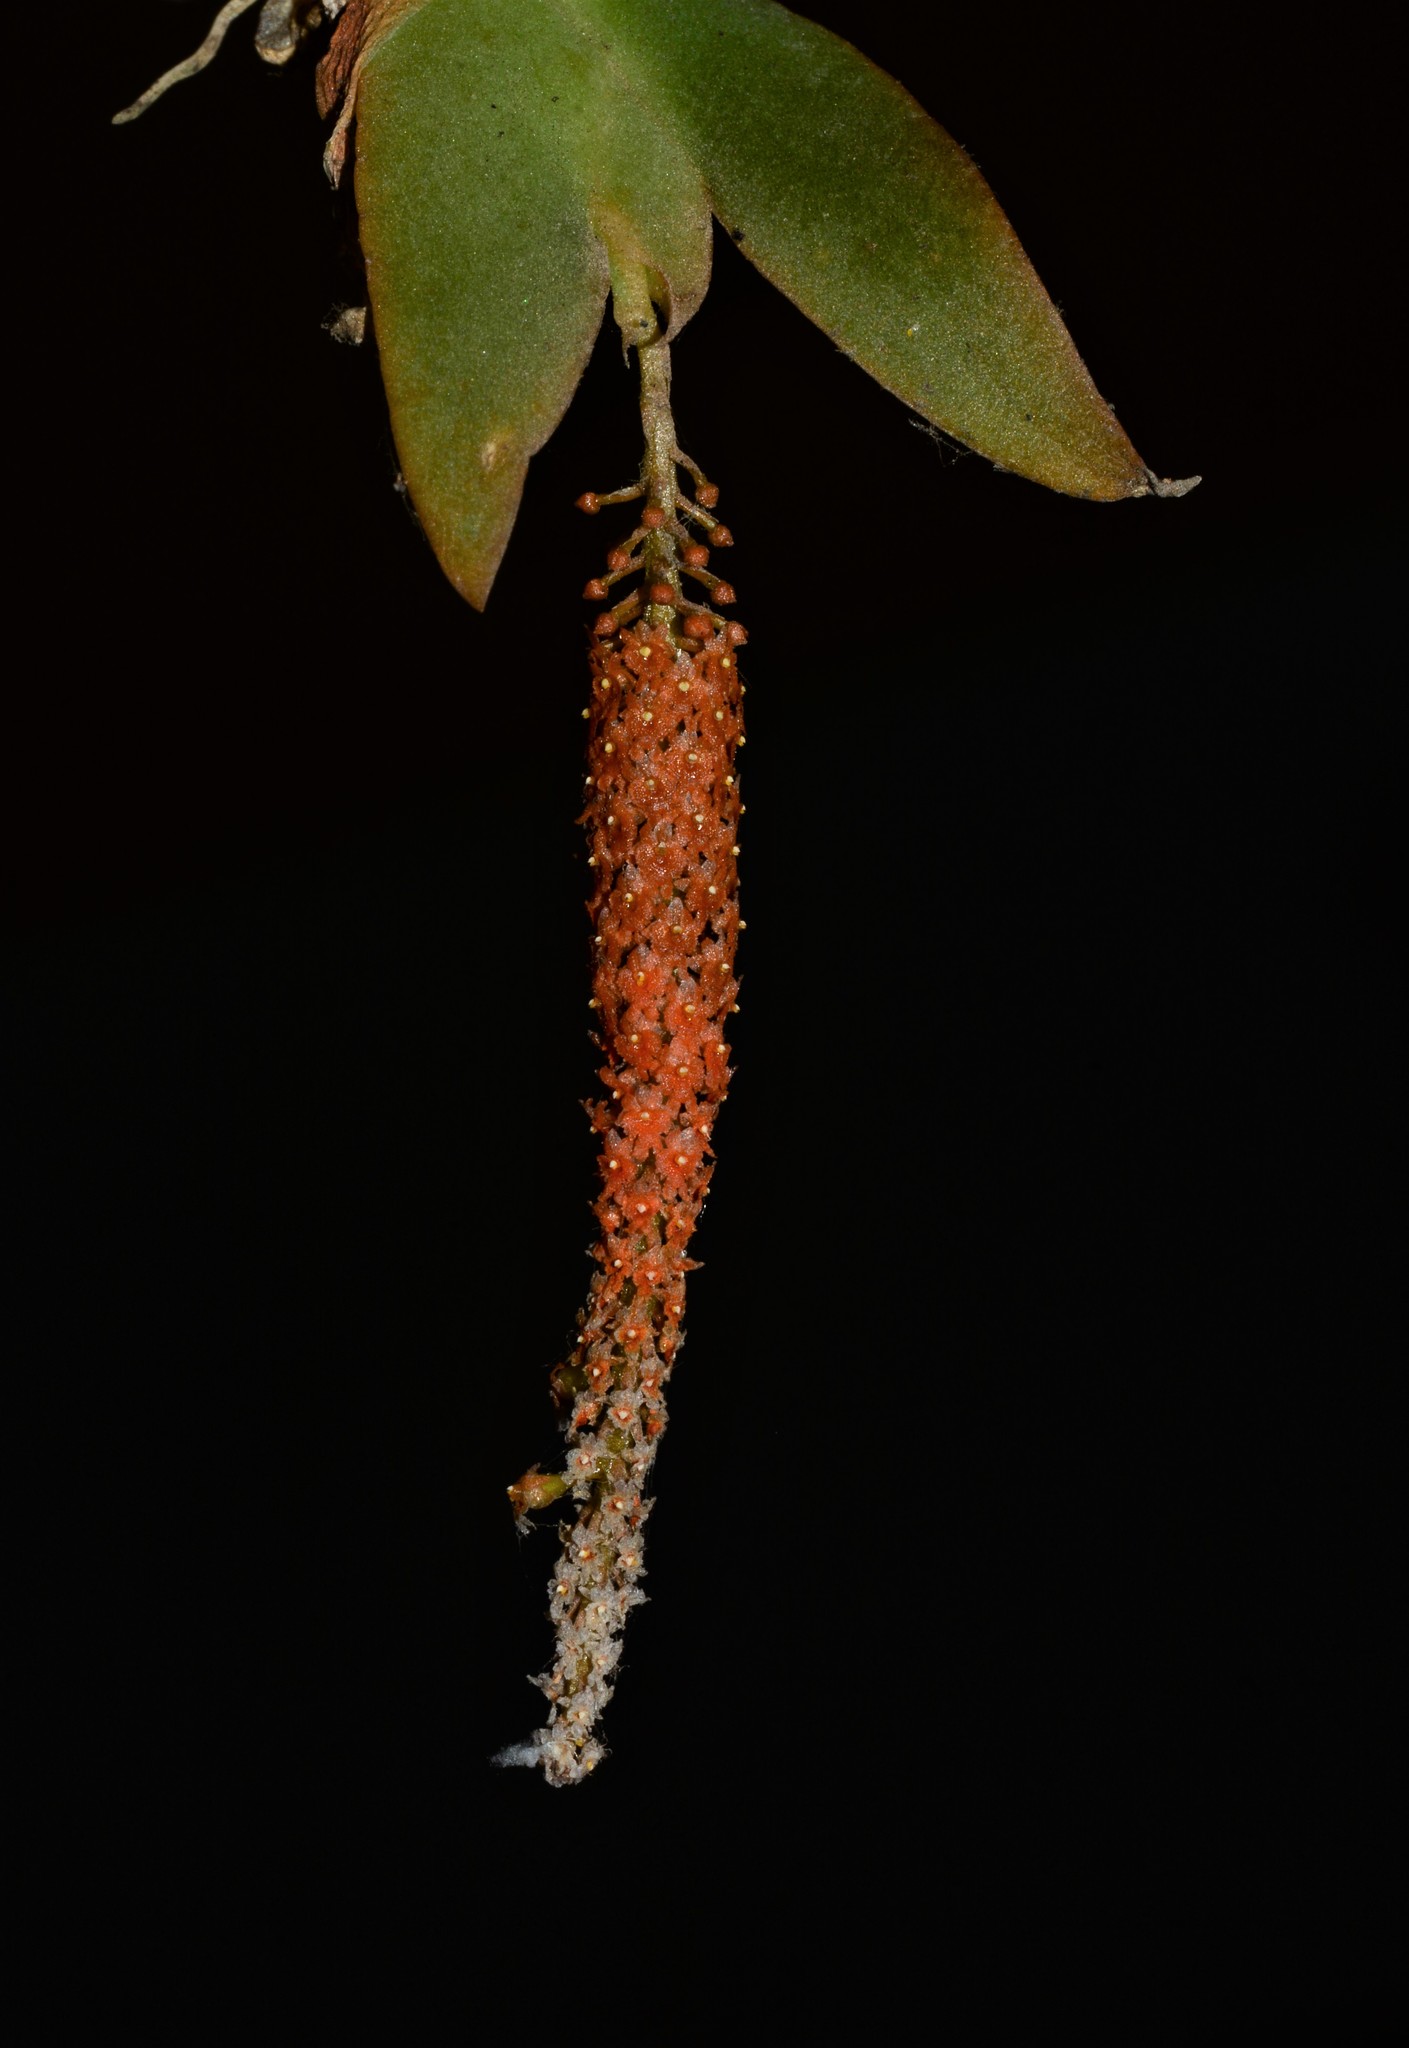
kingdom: Plantae
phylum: Tracheophyta
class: Liliopsida
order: Asparagales
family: Orchidaceae
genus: Oberonia
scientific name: Oberonia brachystachys
